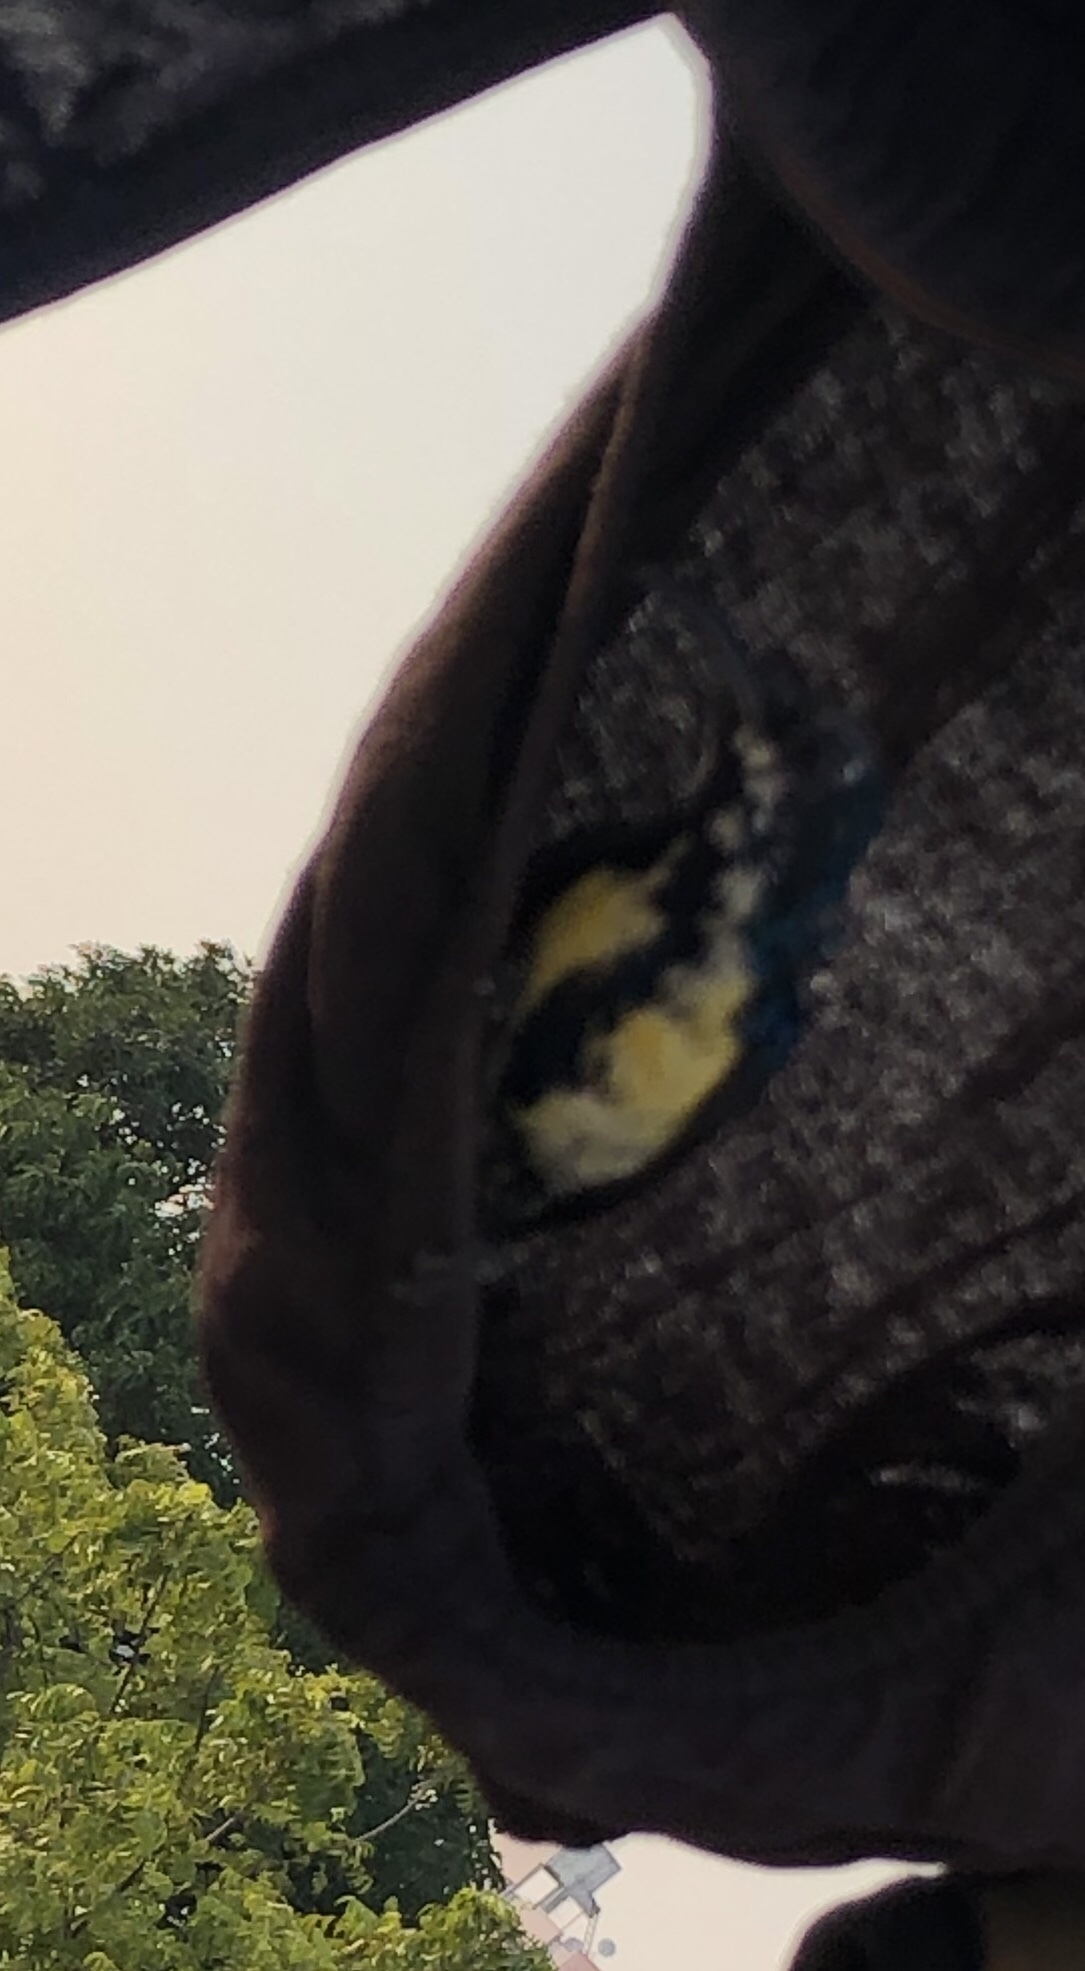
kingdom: Animalia
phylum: Chordata
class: Aves
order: Passeriformes
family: Nectariniidae
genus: Cinnyris
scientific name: Cinnyris asiaticus
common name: Purple sunbird
